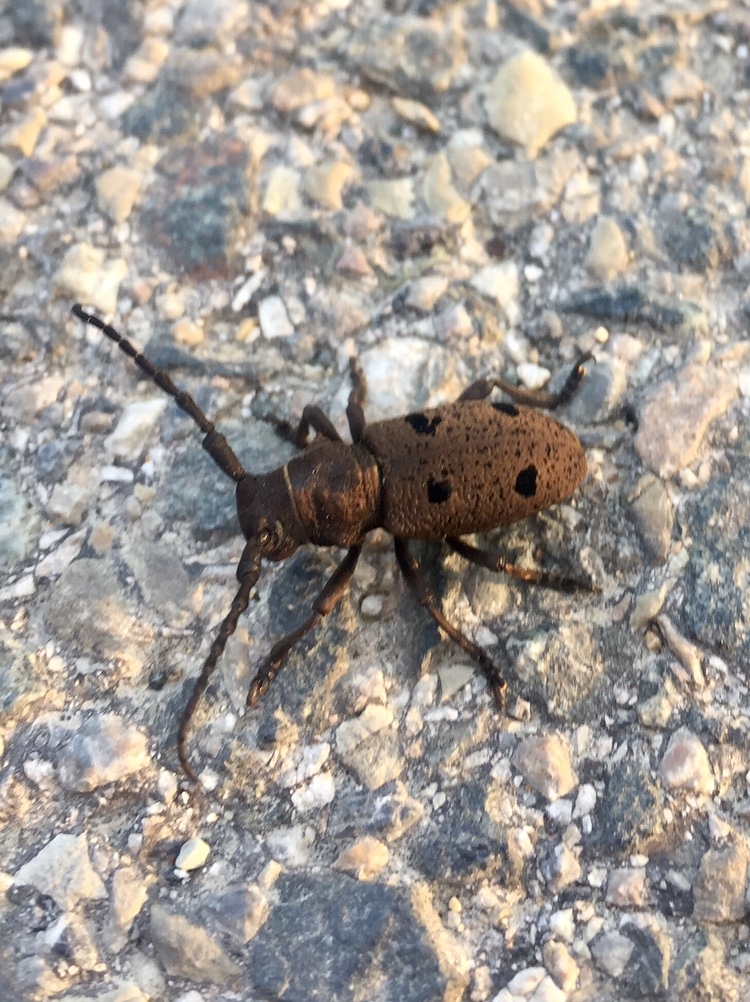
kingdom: Animalia
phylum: Arthropoda
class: Insecta
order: Coleoptera
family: Cerambycidae
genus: Herophila
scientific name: Herophila tristis
